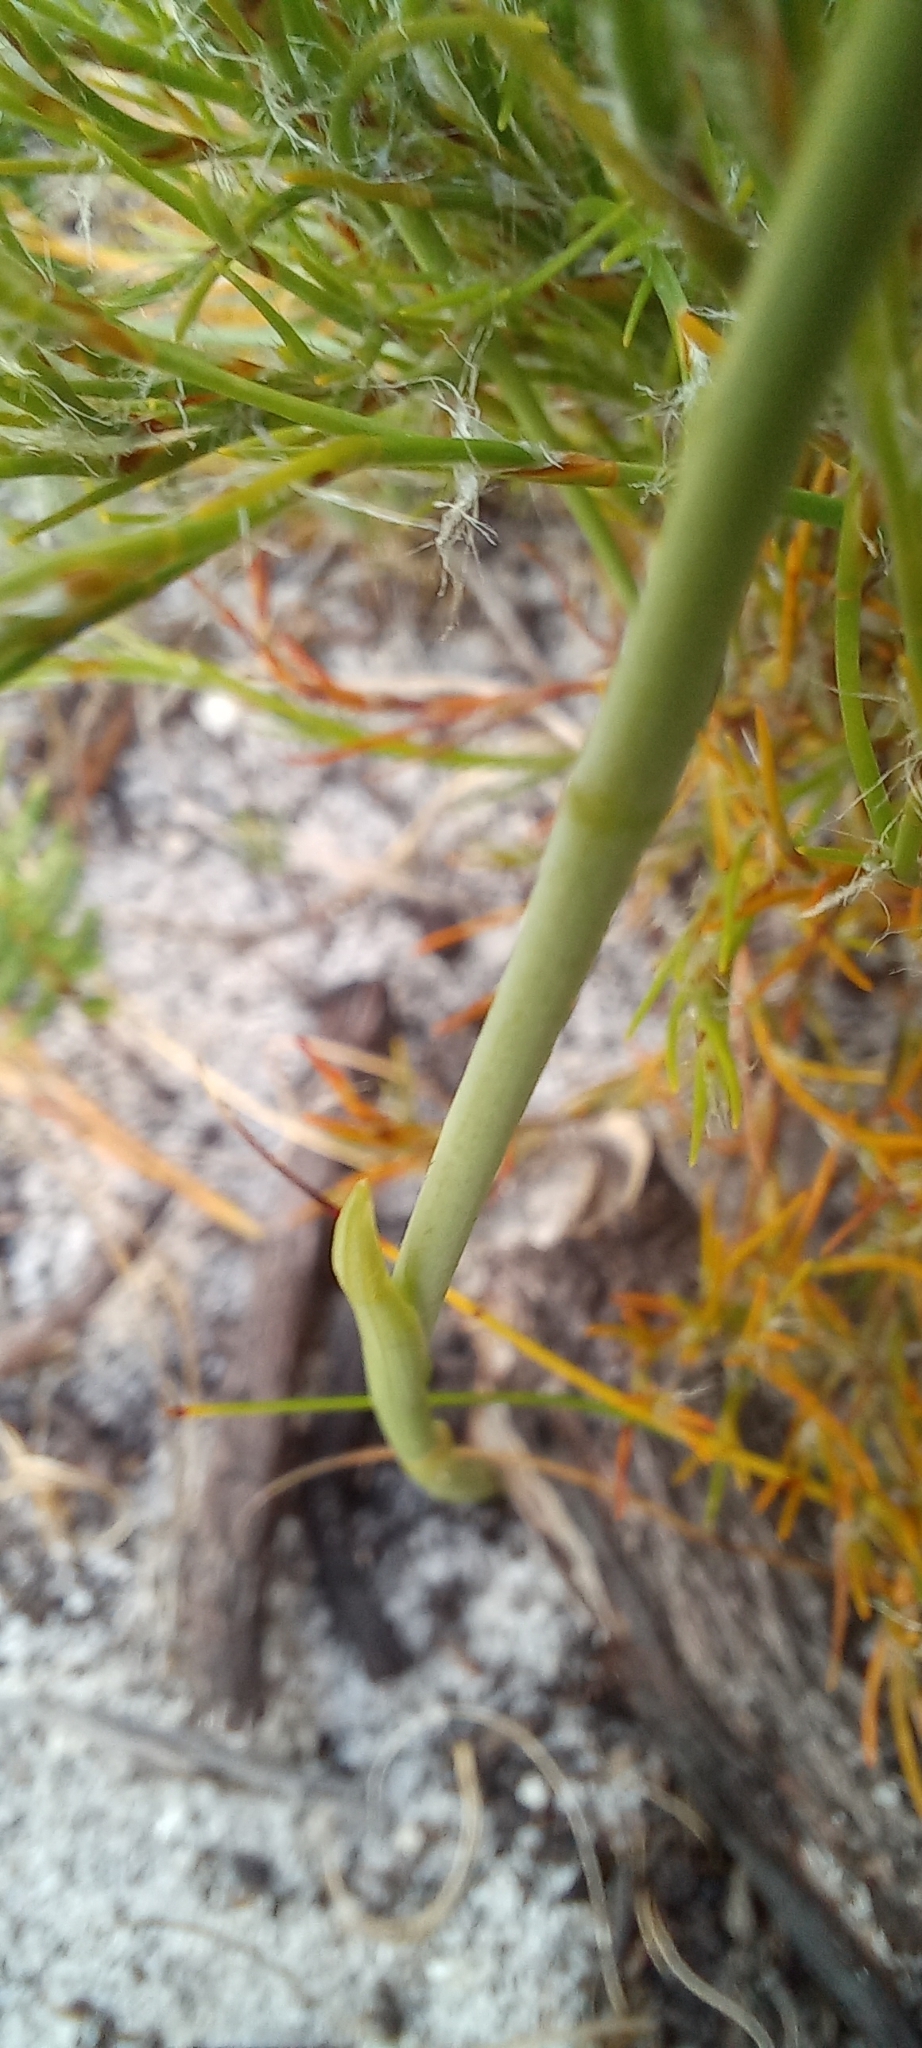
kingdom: Plantae
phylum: Tracheophyta
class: Liliopsida
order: Asparagales
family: Iridaceae
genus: Gladiolus
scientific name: Gladiolus brevifolius
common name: March pypie
